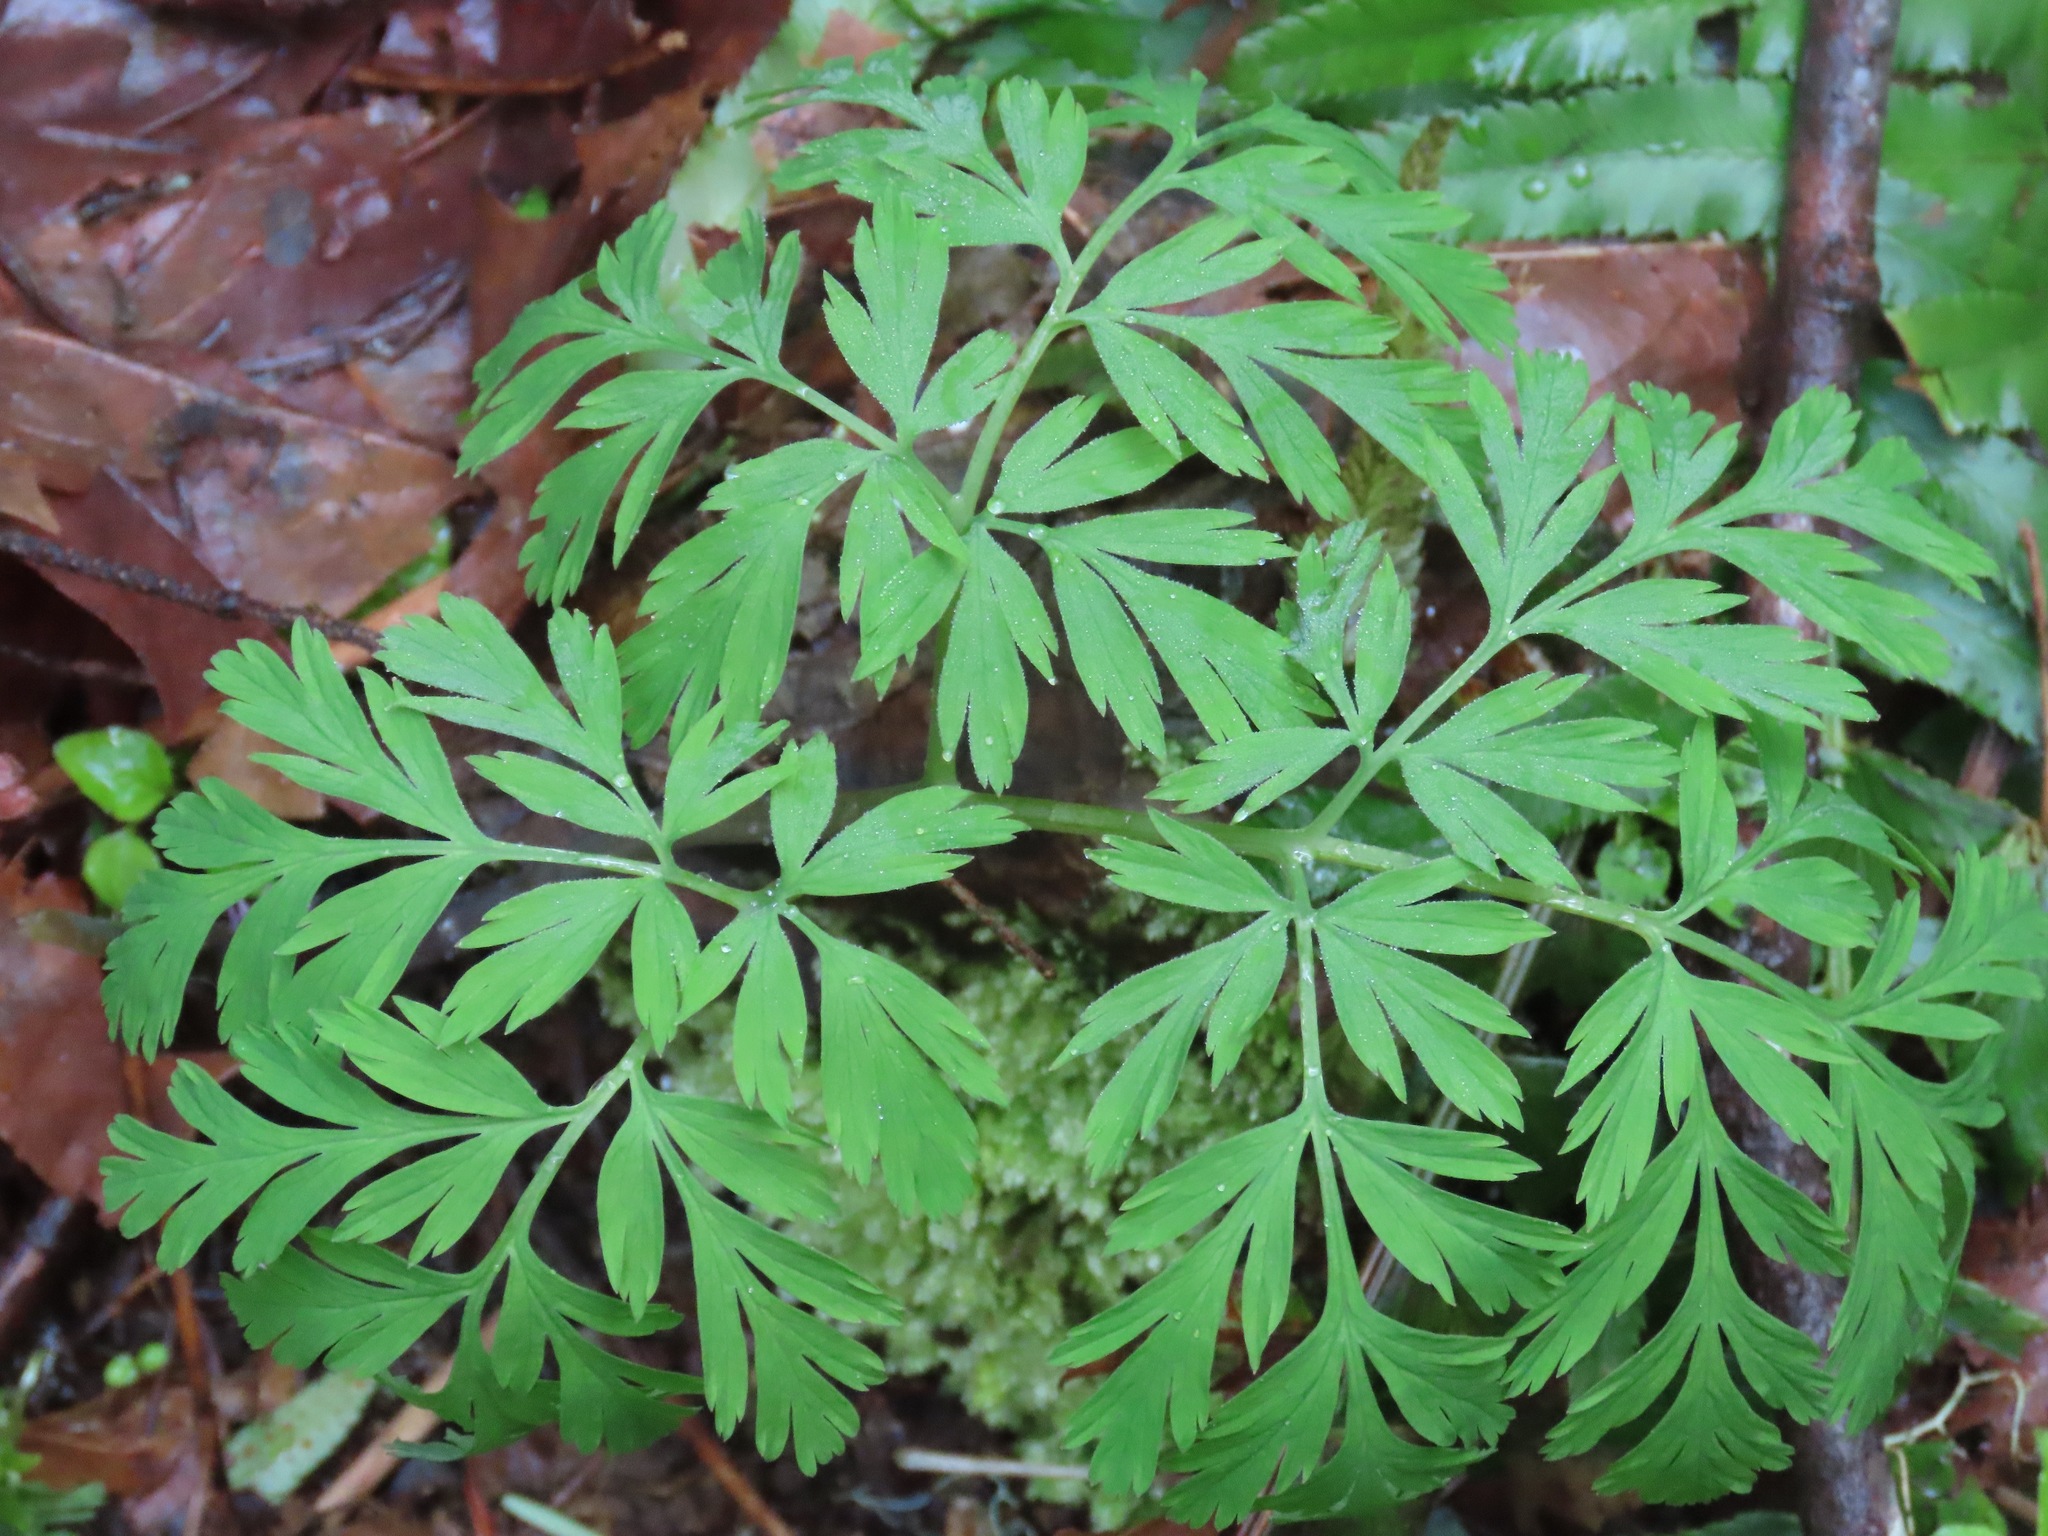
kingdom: Plantae
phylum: Tracheophyta
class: Magnoliopsida
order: Ranunculales
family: Papaveraceae
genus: Dicentra
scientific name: Dicentra formosa
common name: Bleeding-heart
